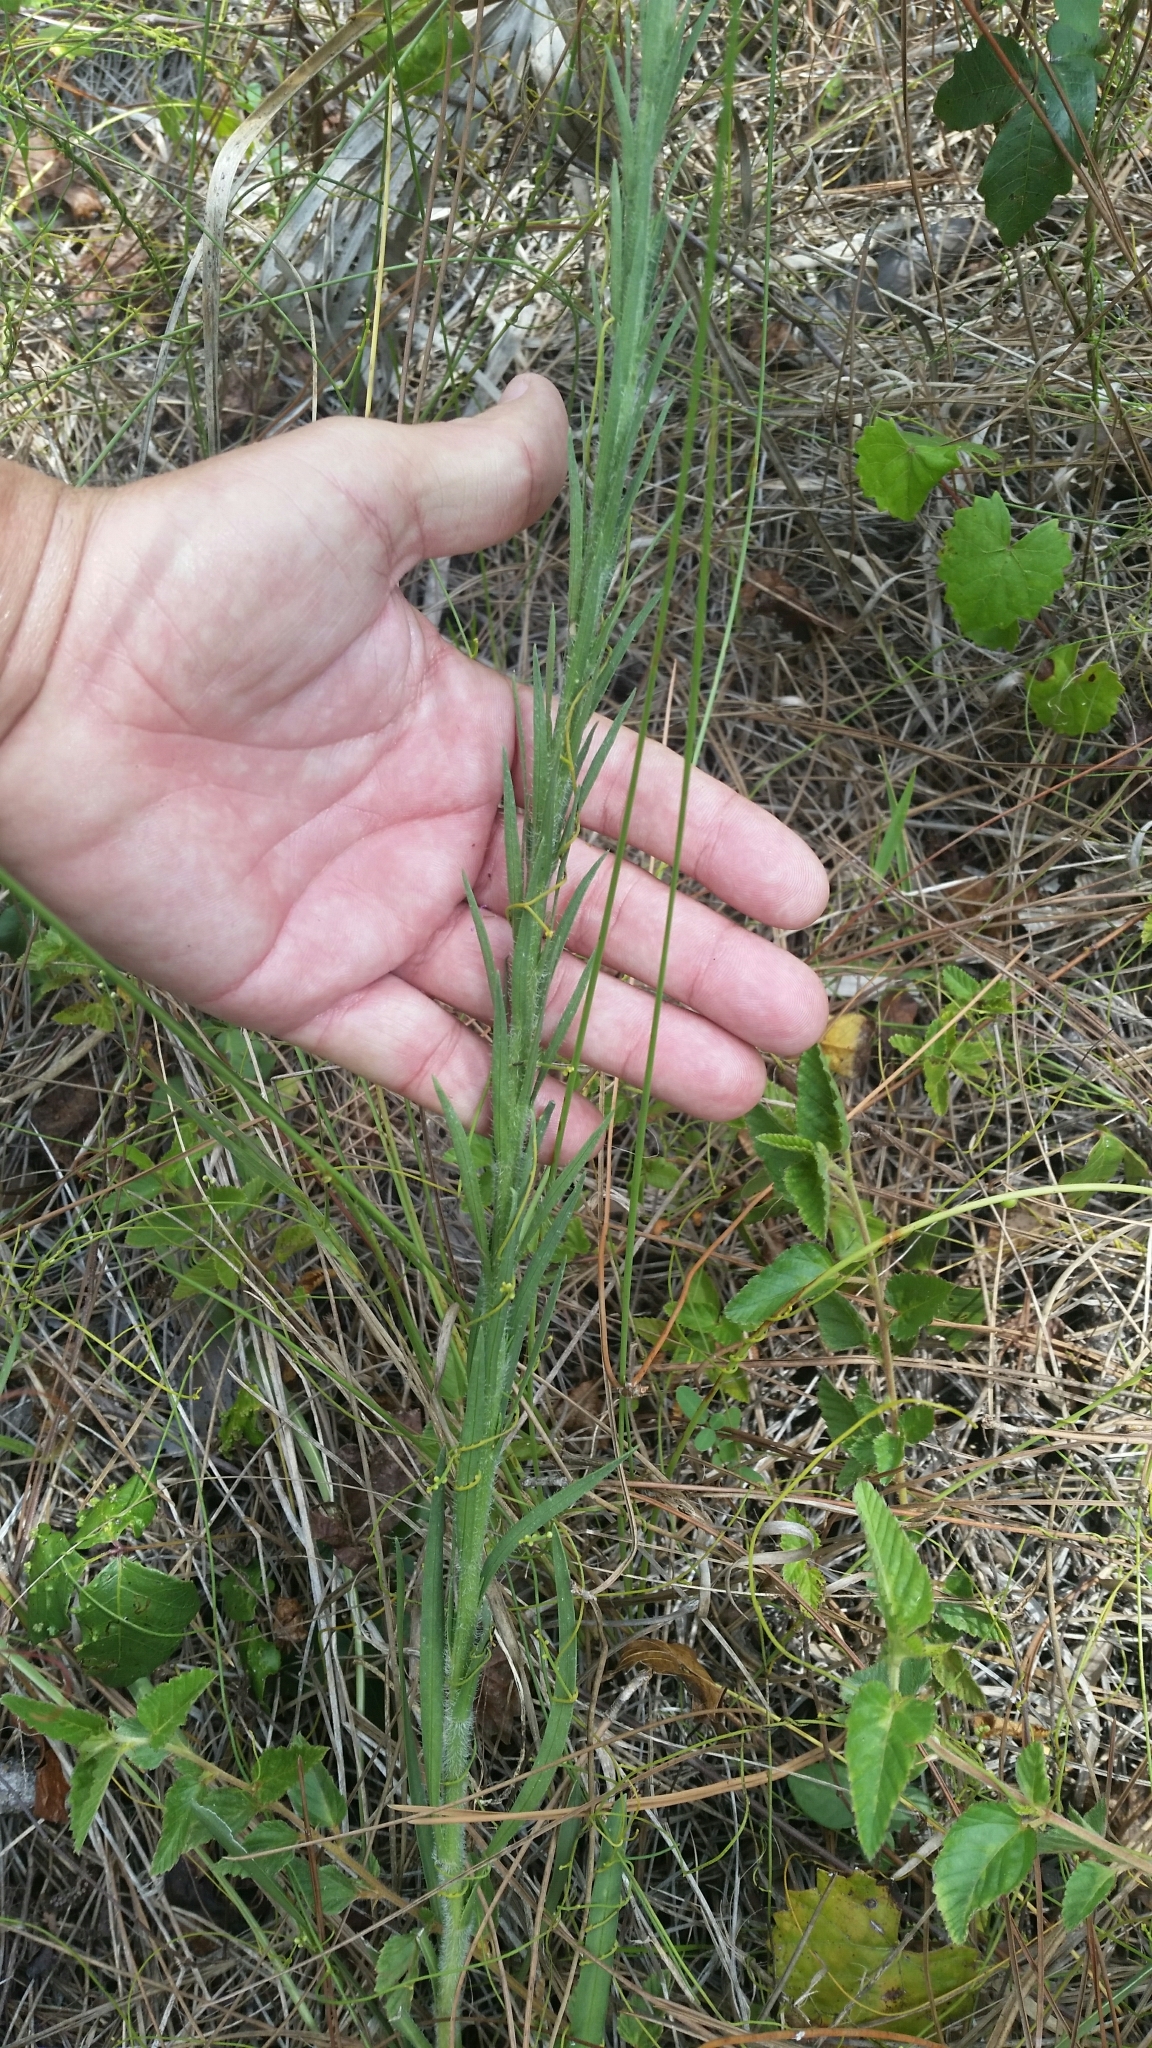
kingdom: Plantae
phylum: Tracheophyta
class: Magnoliopsida
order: Asterales
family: Asteraceae
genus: Liatris
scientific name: Liatris garberi
